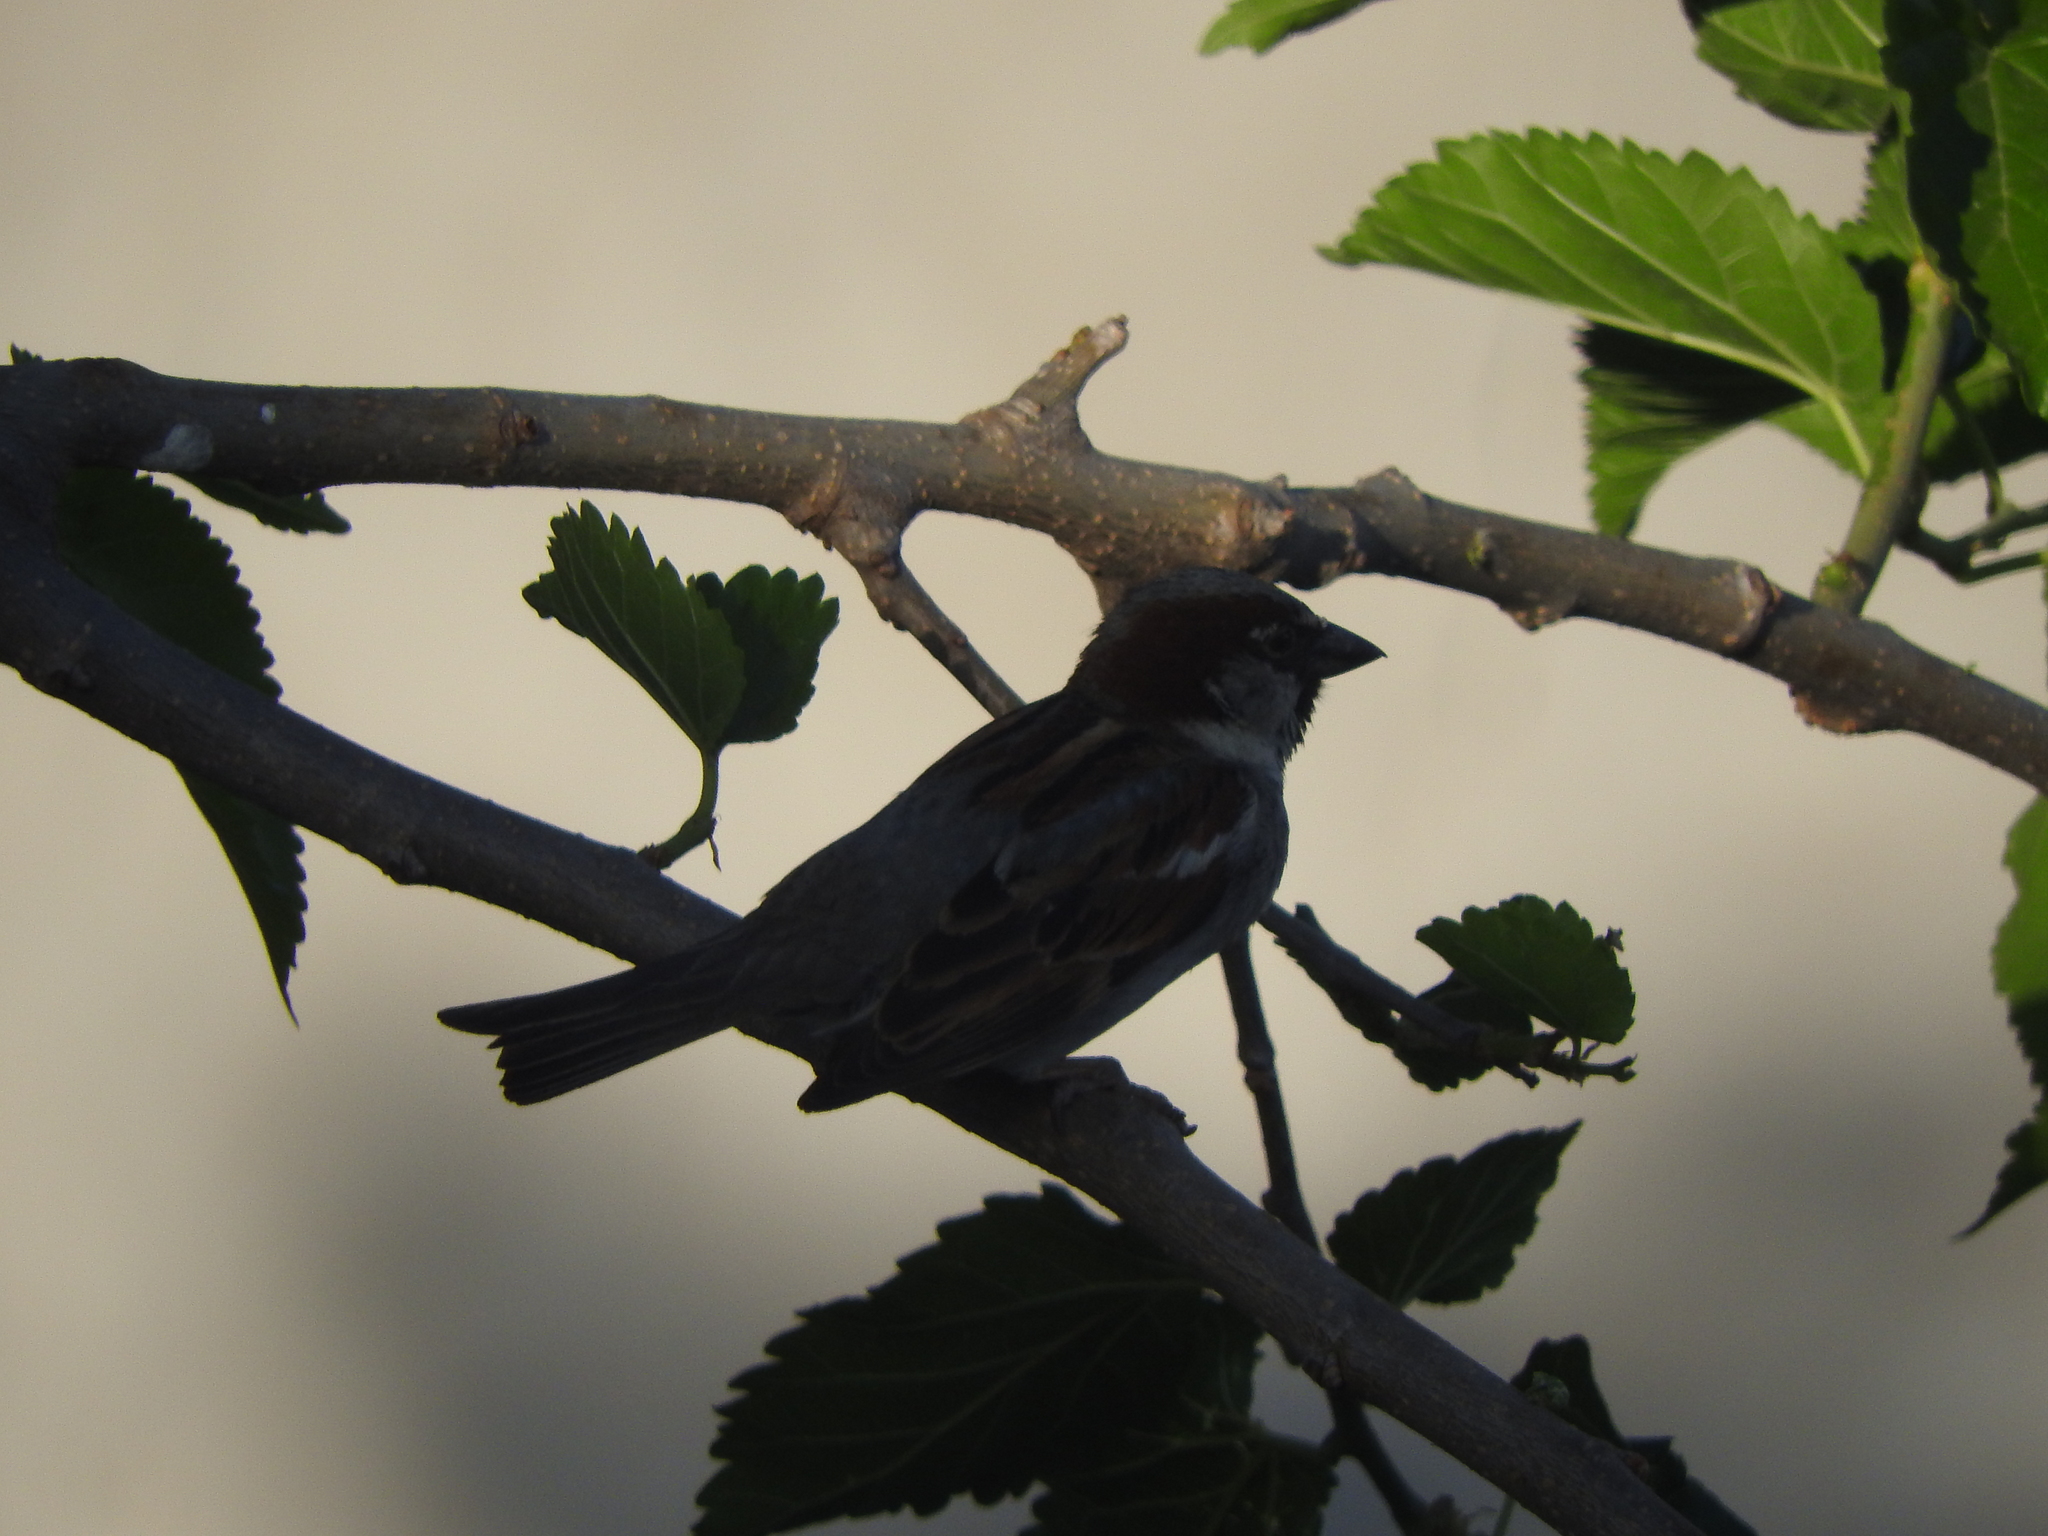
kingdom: Animalia
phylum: Chordata
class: Aves
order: Passeriformes
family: Passeridae
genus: Passer
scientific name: Passer domesticus
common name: House sparrow
